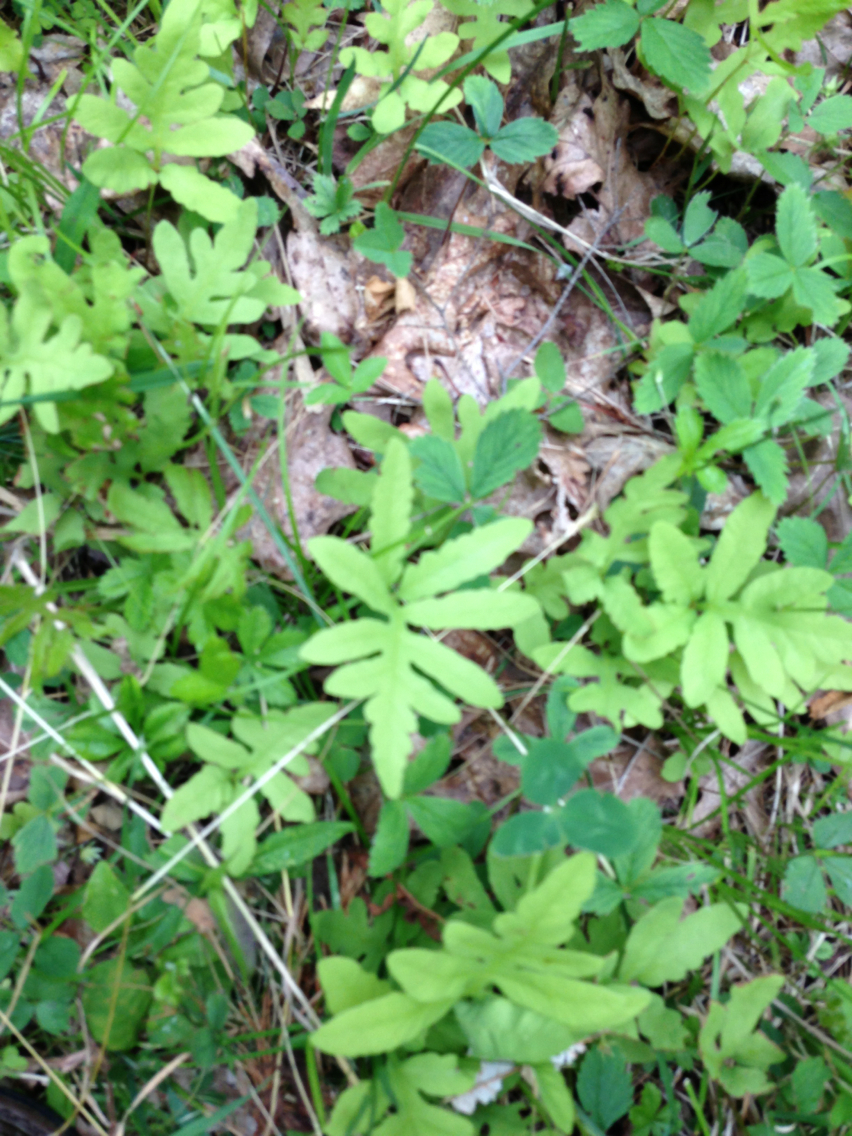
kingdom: Plantae
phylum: Tracheophyta
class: Polypodiopsida
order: Polypodiales
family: Onocleaceae
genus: Onoclea
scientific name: Onoclea sensibilis
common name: Sensitive fern
